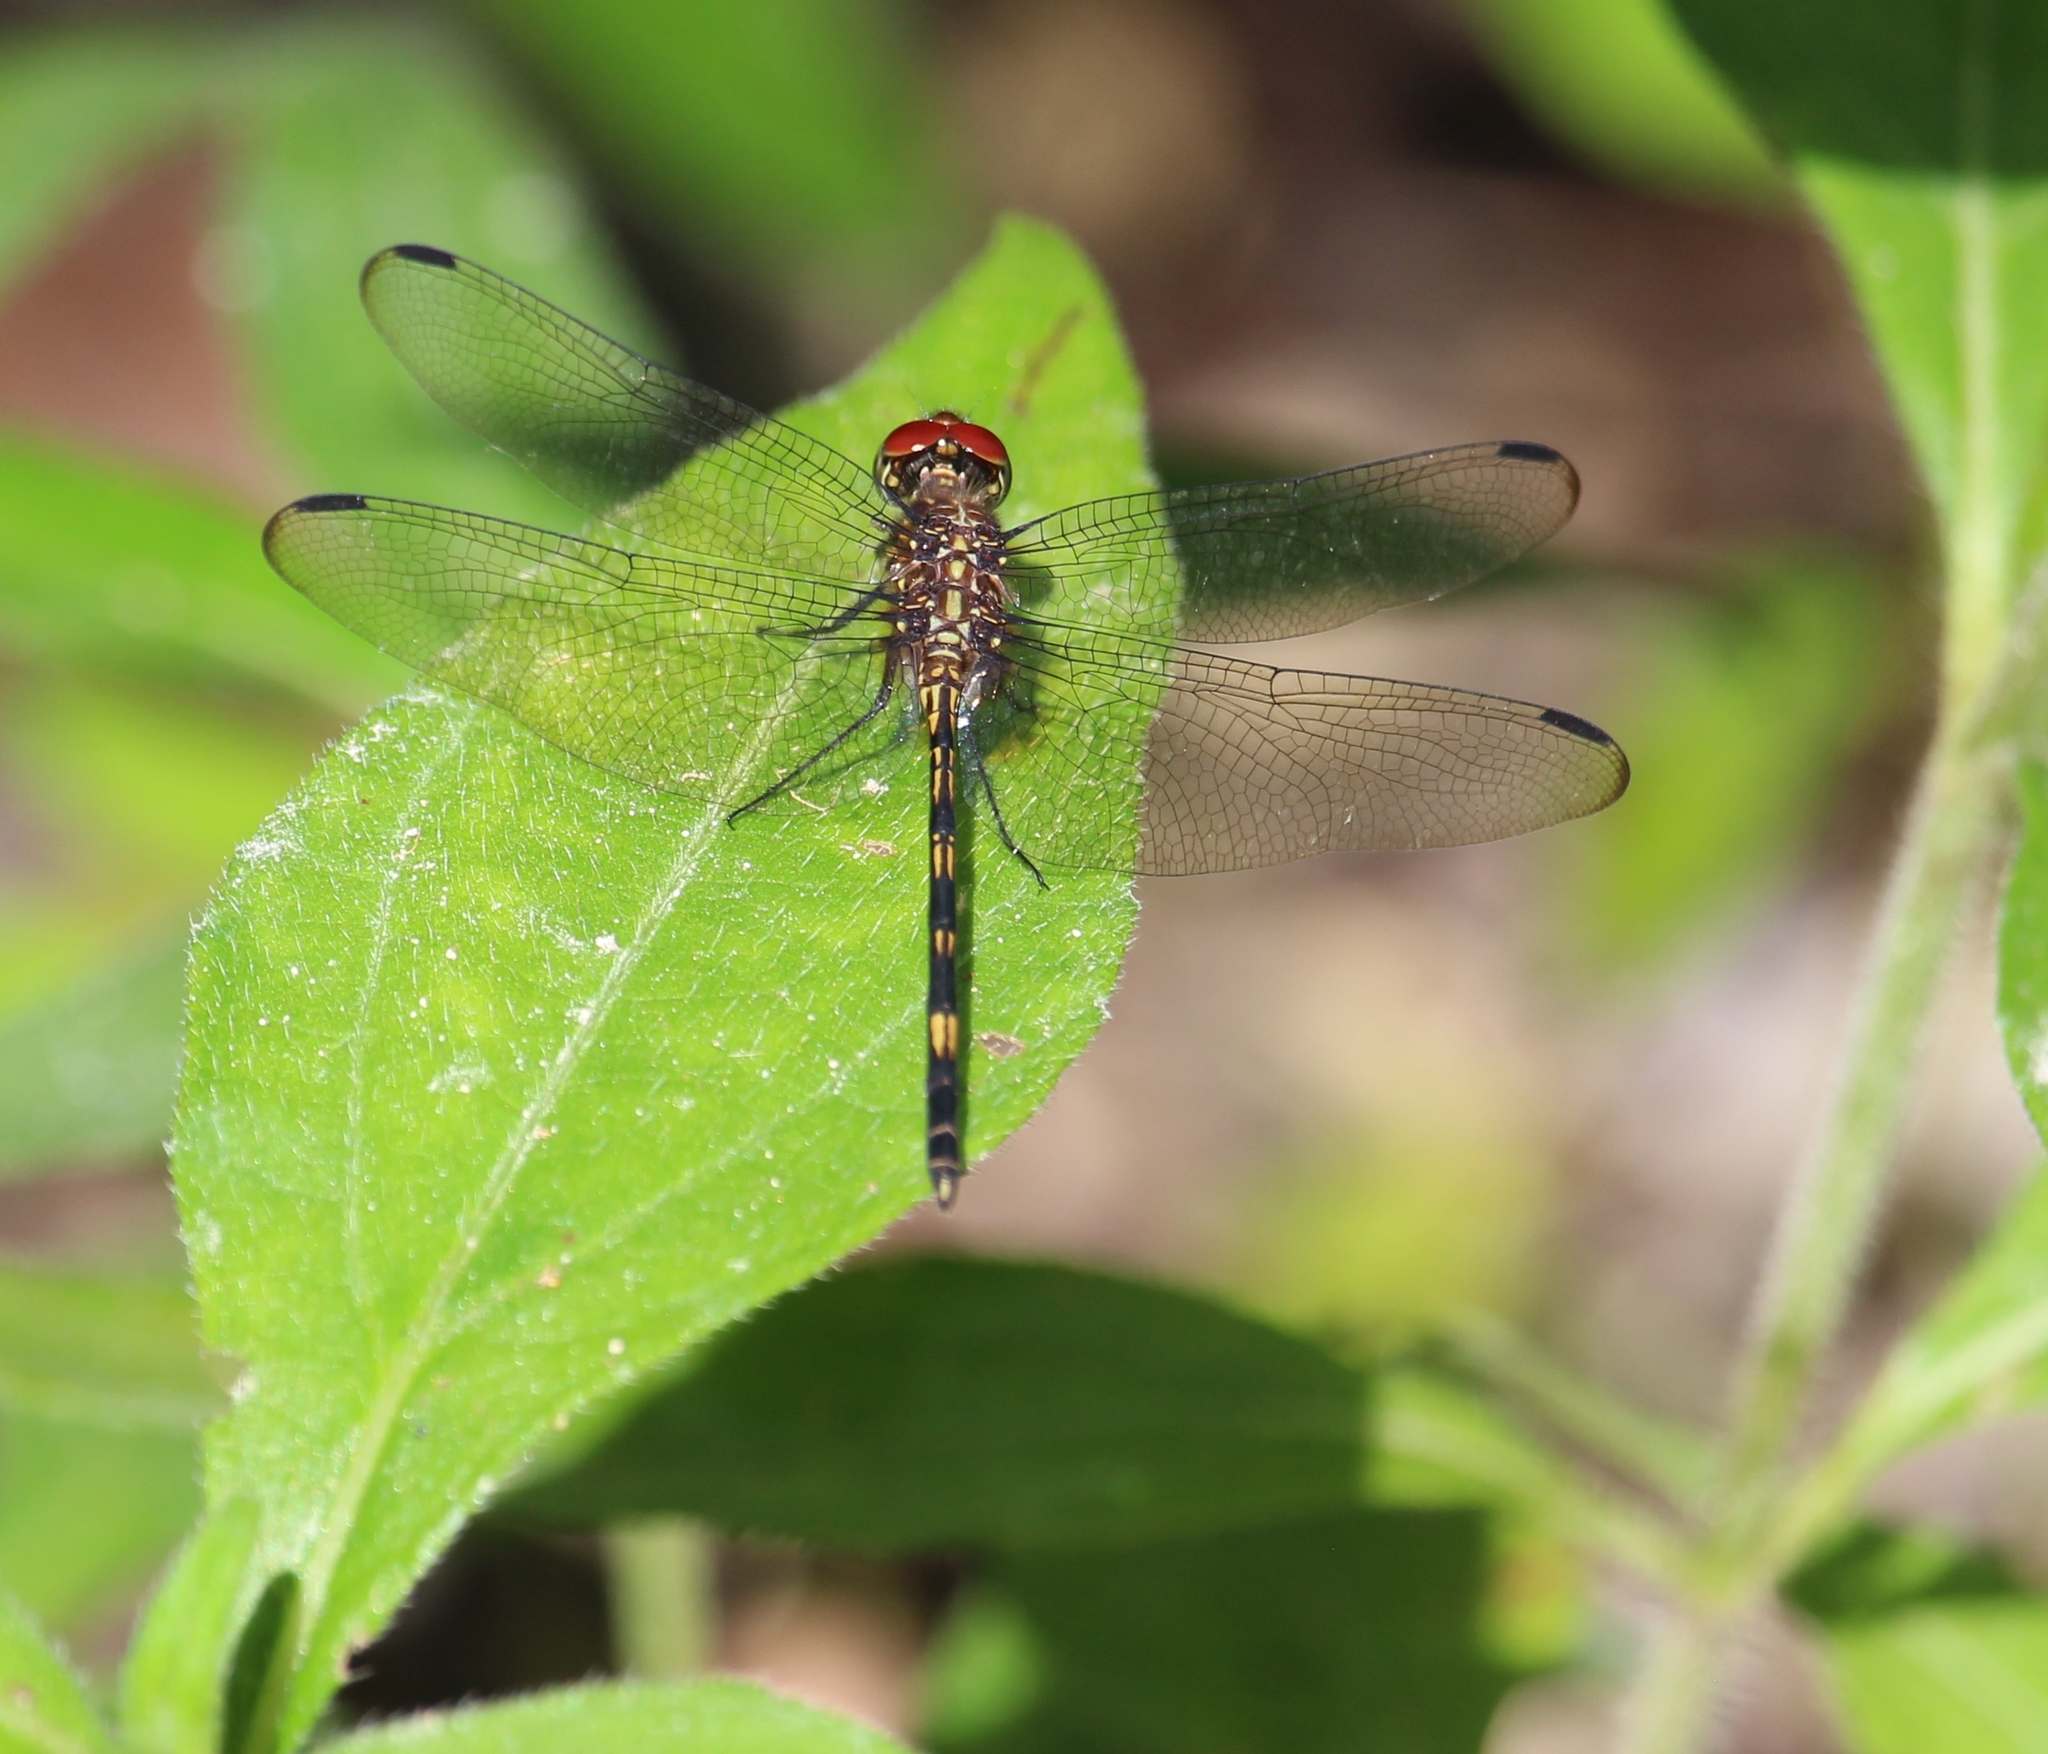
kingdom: Animalia
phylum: Arthropoda
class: Insecta
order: Odonata
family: Libellulidae
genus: Dythemis
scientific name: Dythemis sterilis
